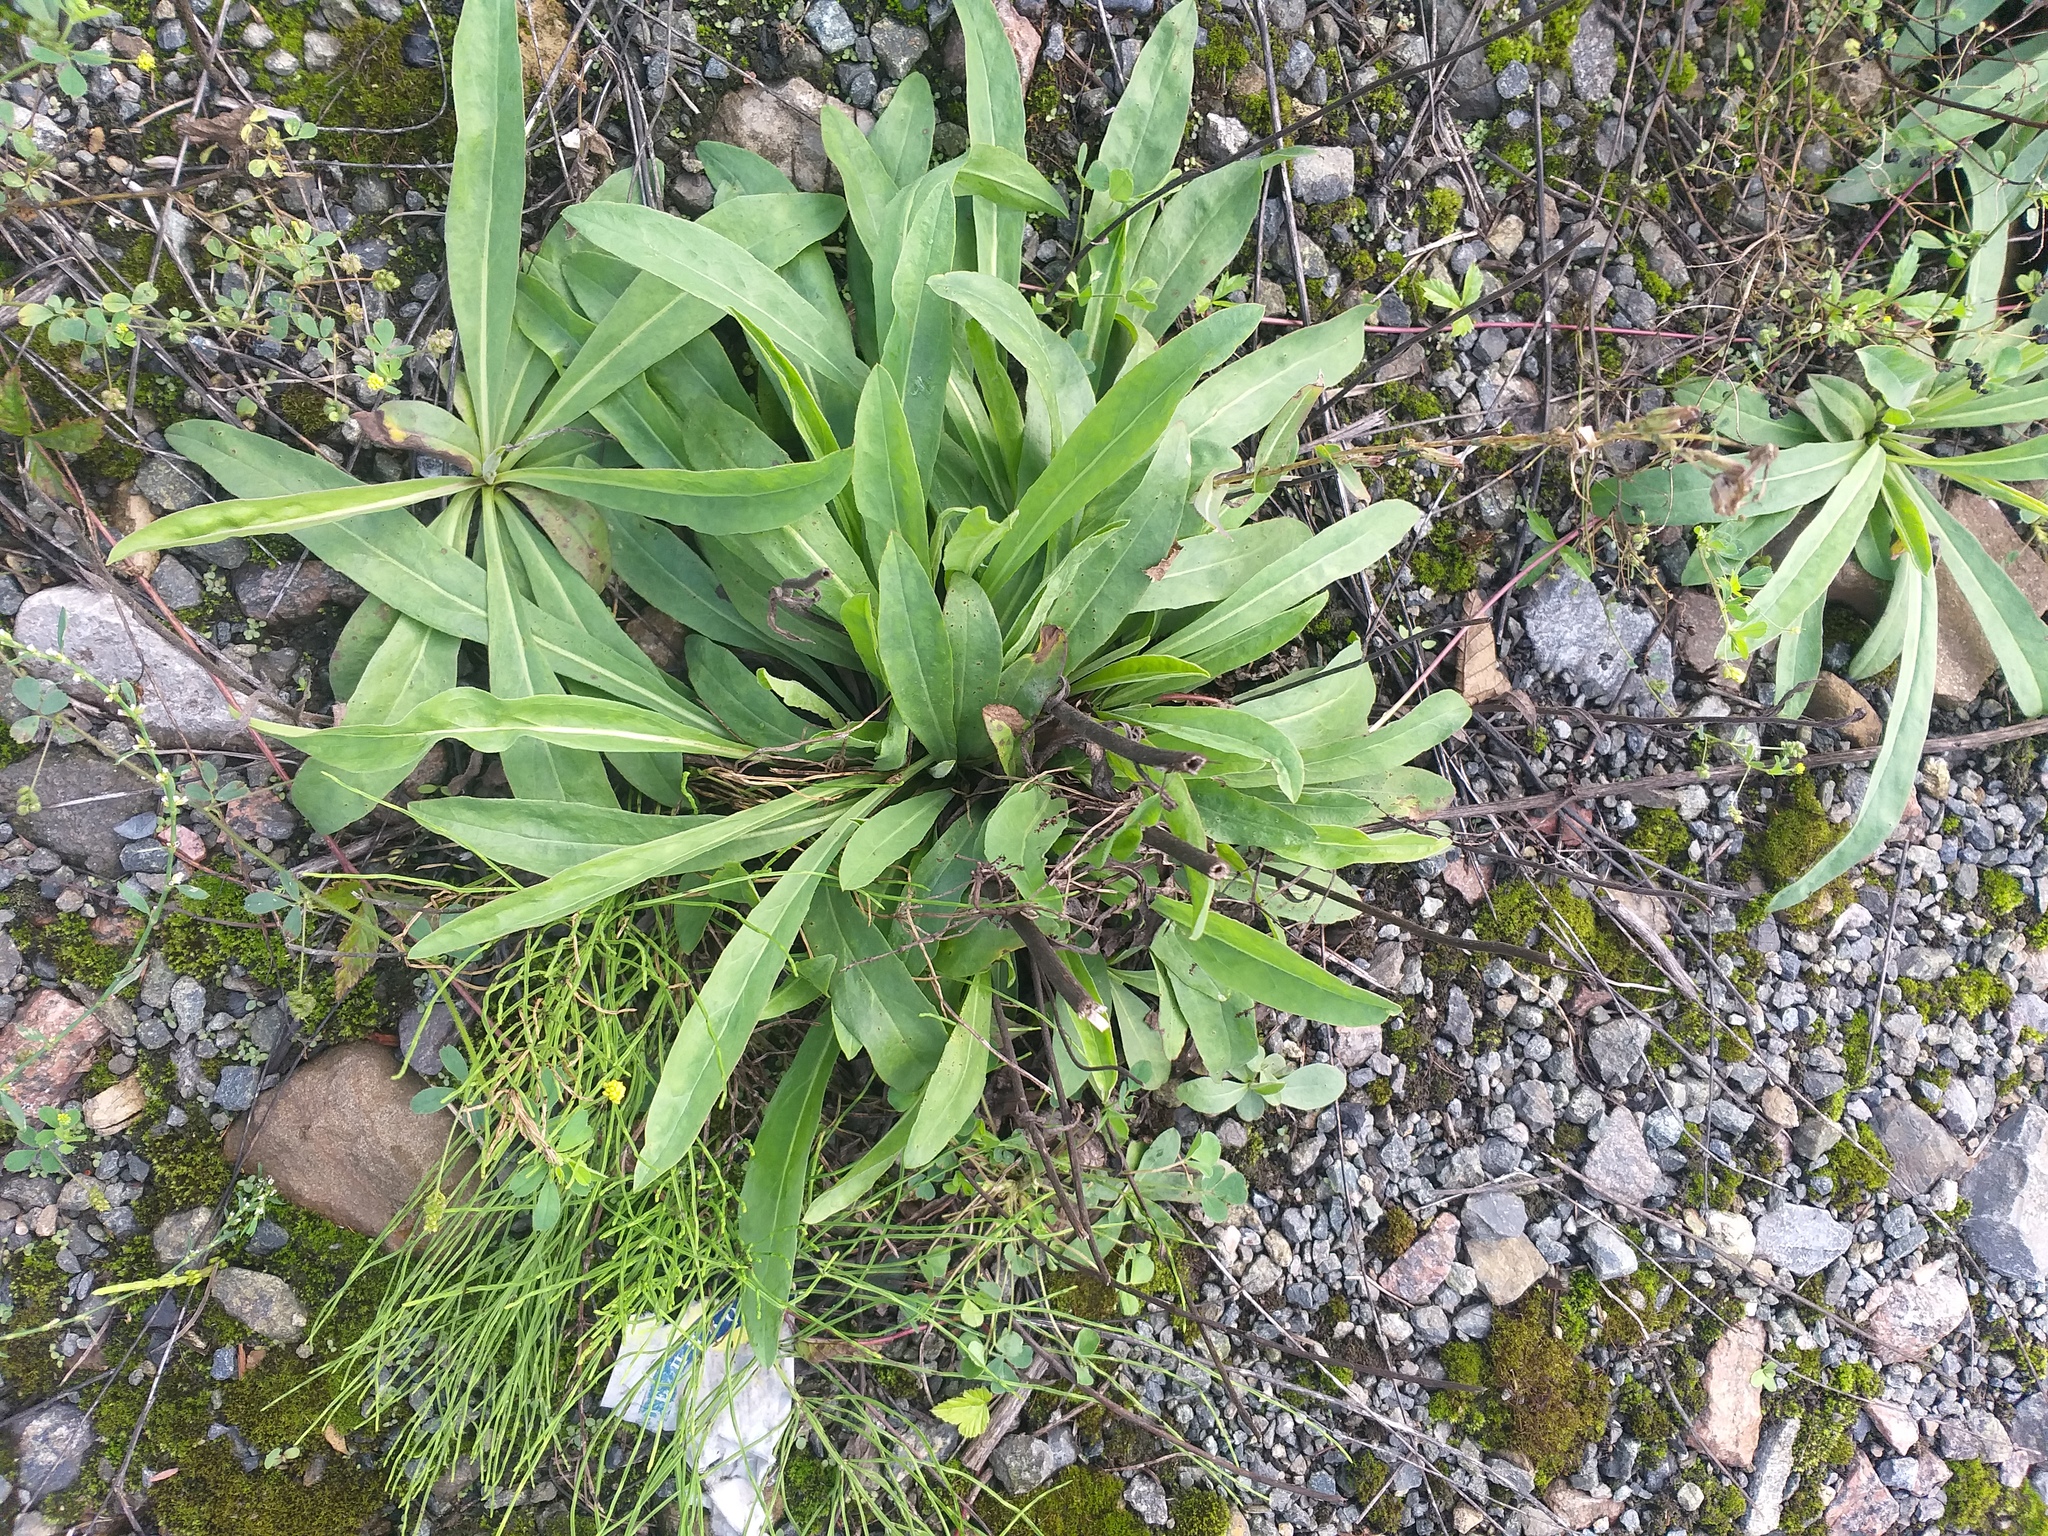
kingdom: Plantae
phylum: Tracheophyta
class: Magnoliopsida
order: Asterales
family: Asteraceae
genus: Pilosella
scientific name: Pilosella
